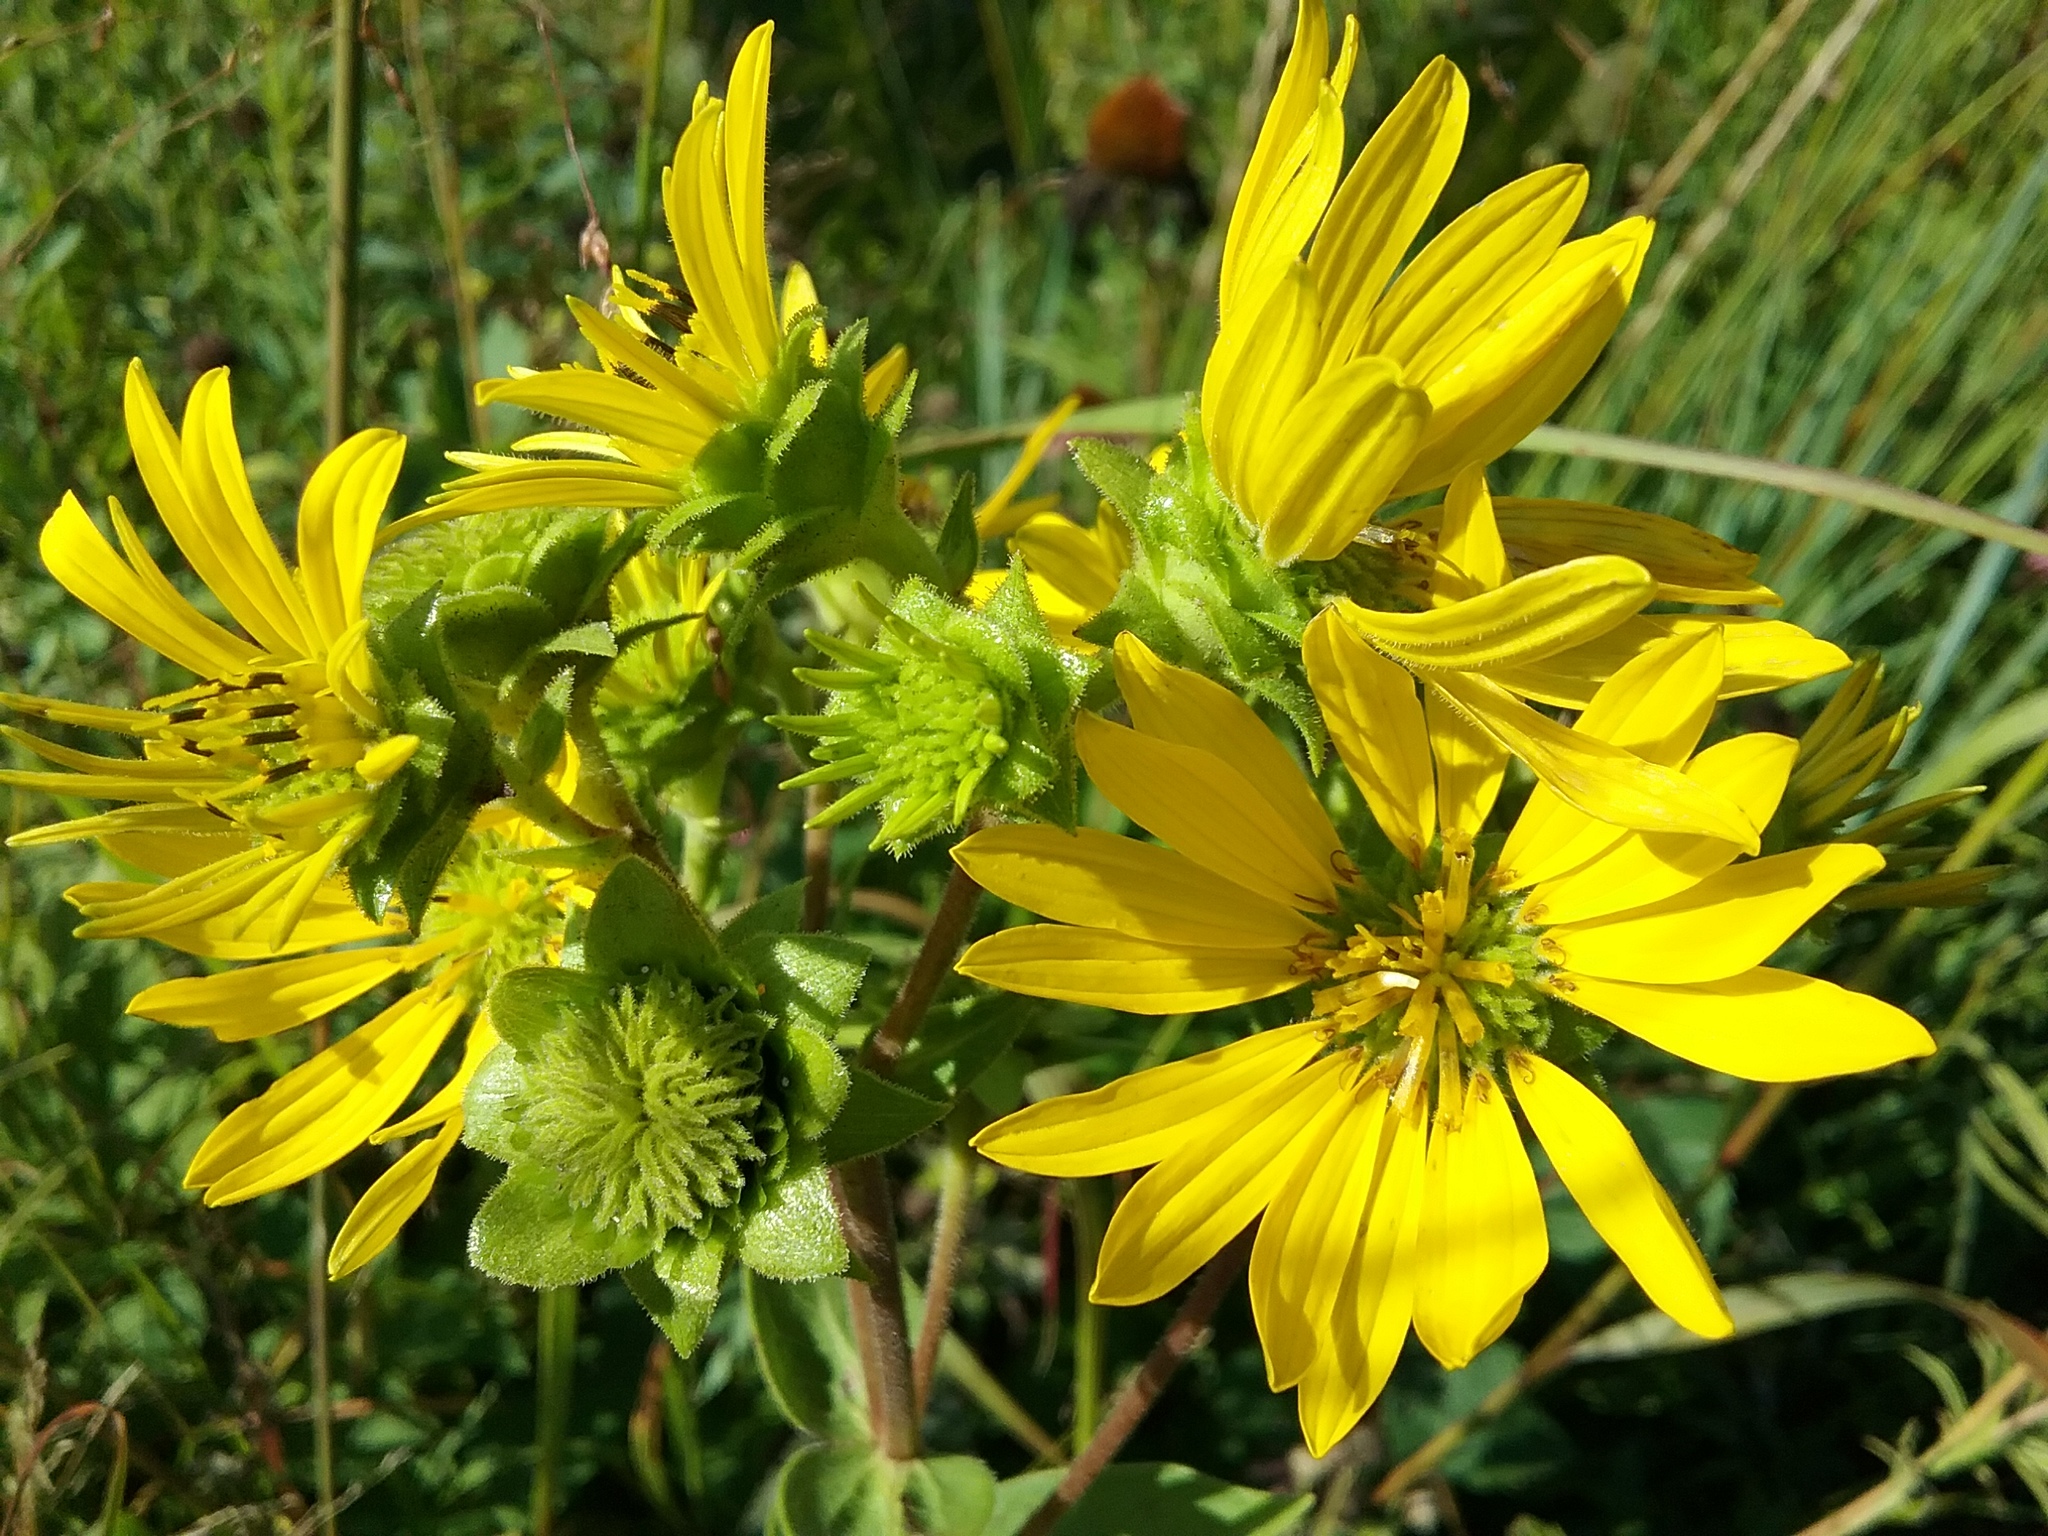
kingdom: Plantae
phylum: Tracheophyta
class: Magnoliopsida
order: Asterales
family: Asteraceae
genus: Silphium
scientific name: Silphium integrifolium
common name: Whole-leaf rosinweed
